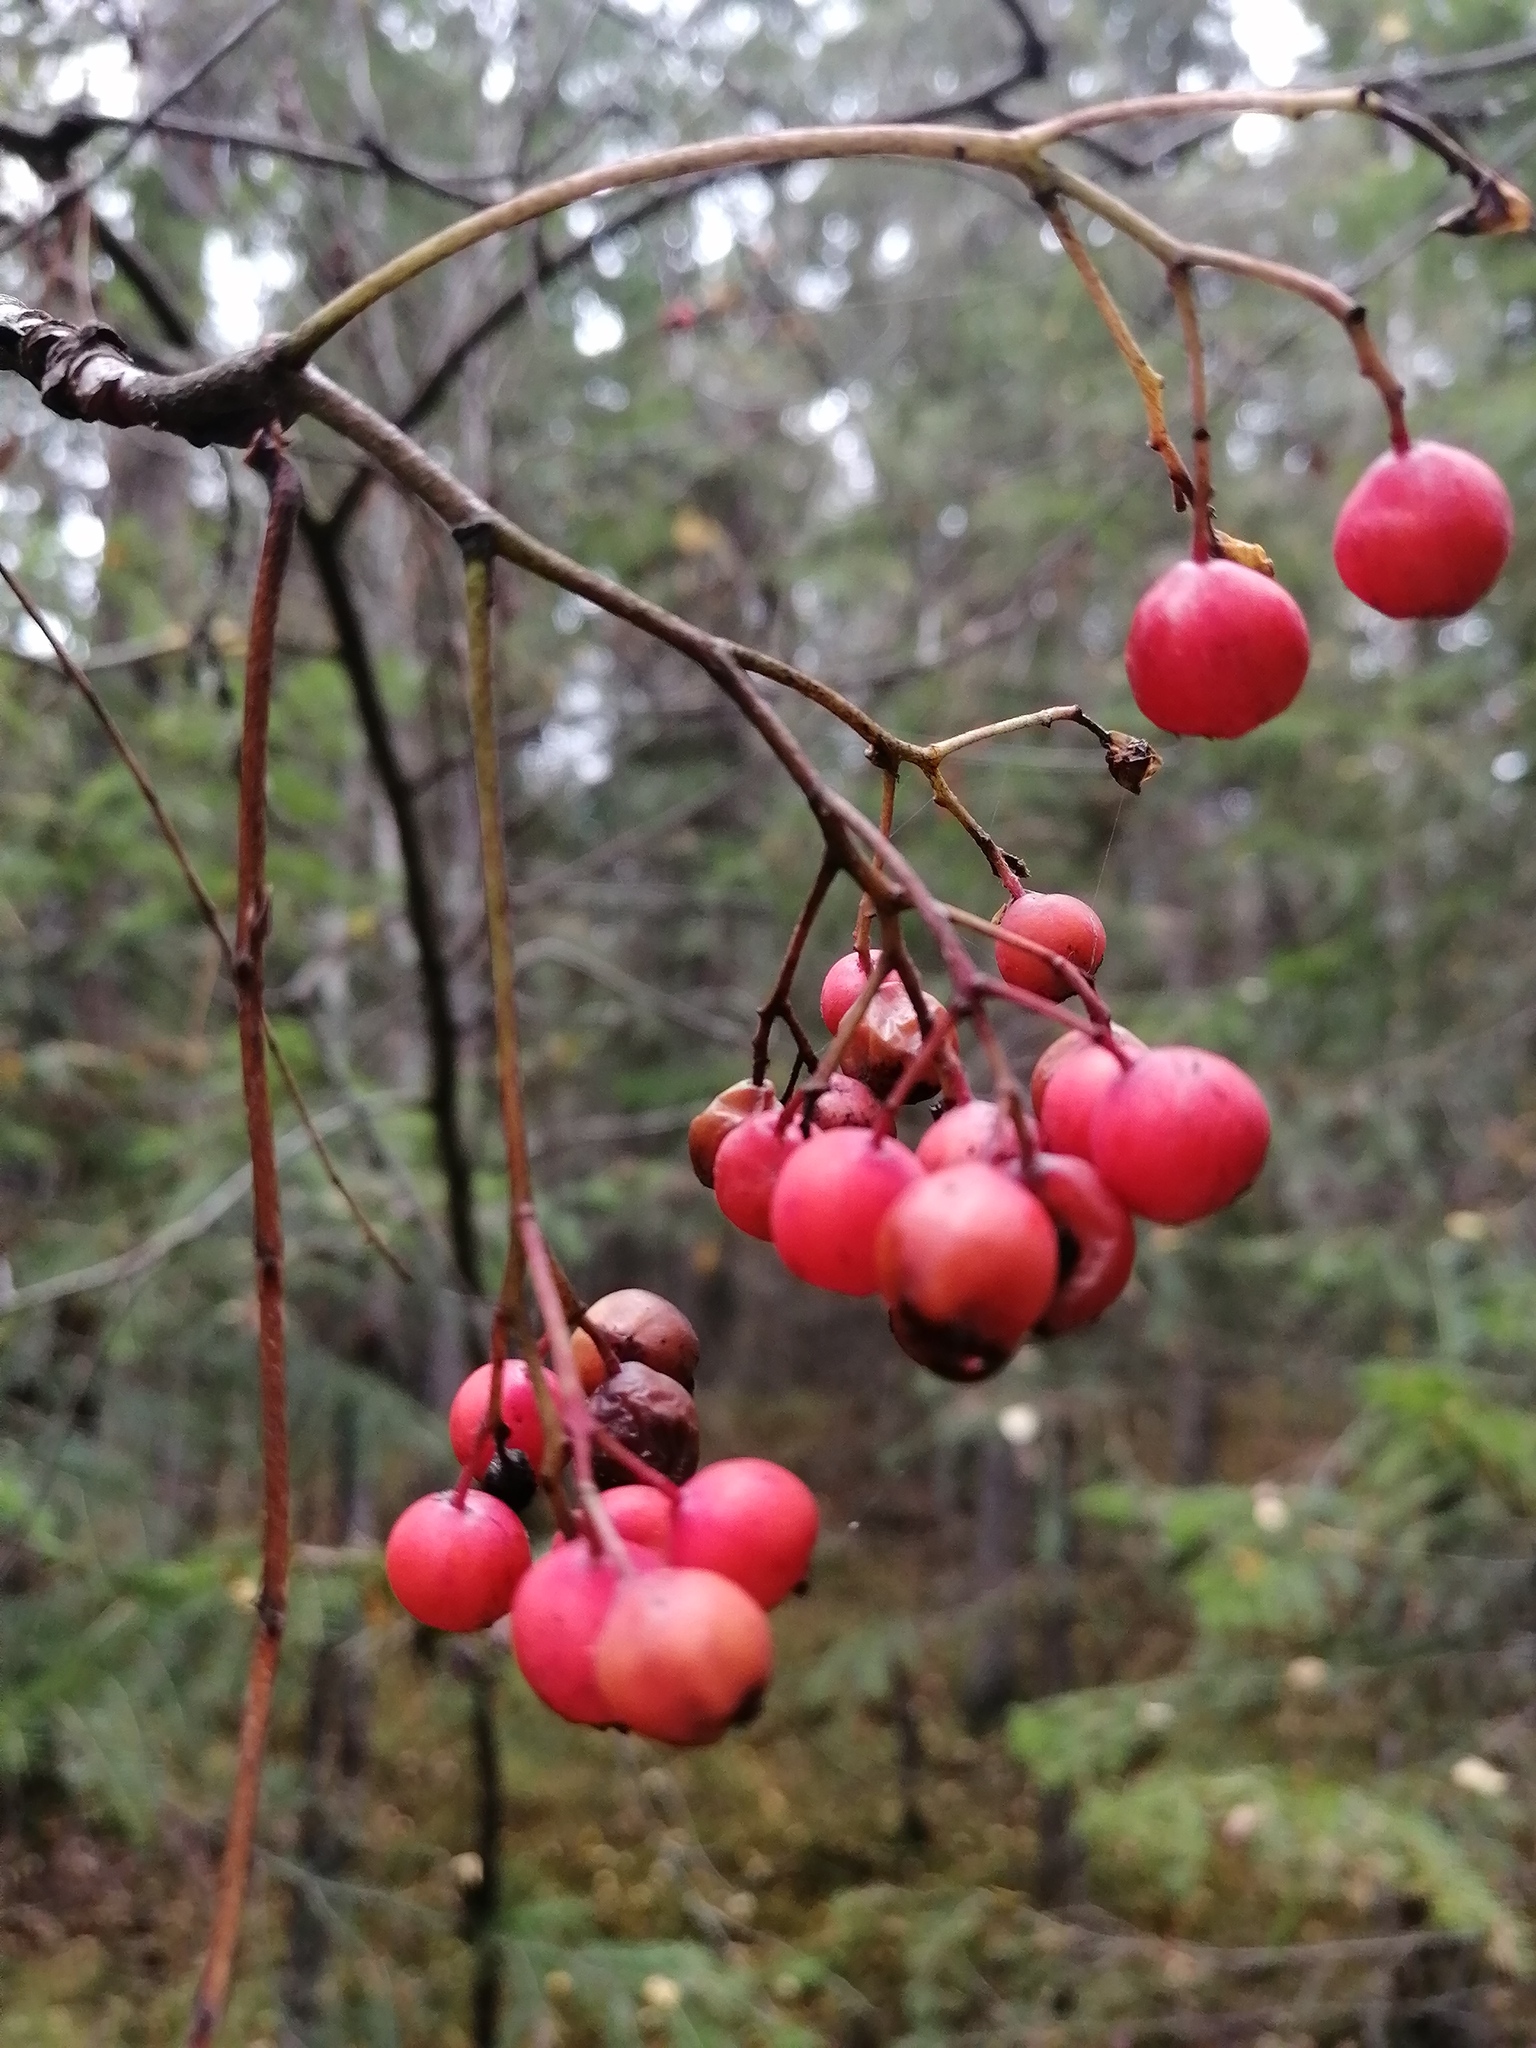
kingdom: Plantae
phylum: Tracheophyta
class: Magnoliopsida
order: Rosales
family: Rosaceae
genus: Sorbus
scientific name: Sorbus aucuparia
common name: Rowan
